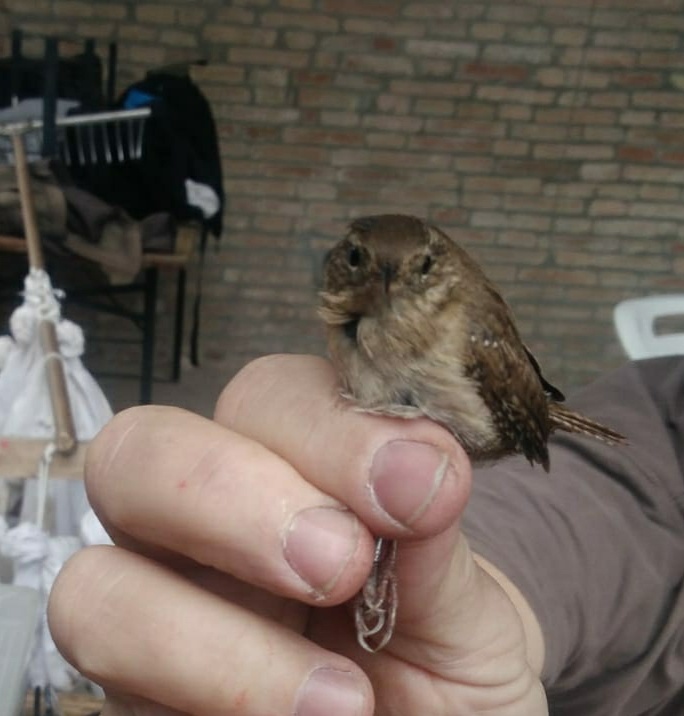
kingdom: Animalia
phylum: Chordata
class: Aves
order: Passeriformes
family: Troglodytidae
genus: Troglodytes
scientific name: Troglodytes troglodytes
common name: Eurasian wren
